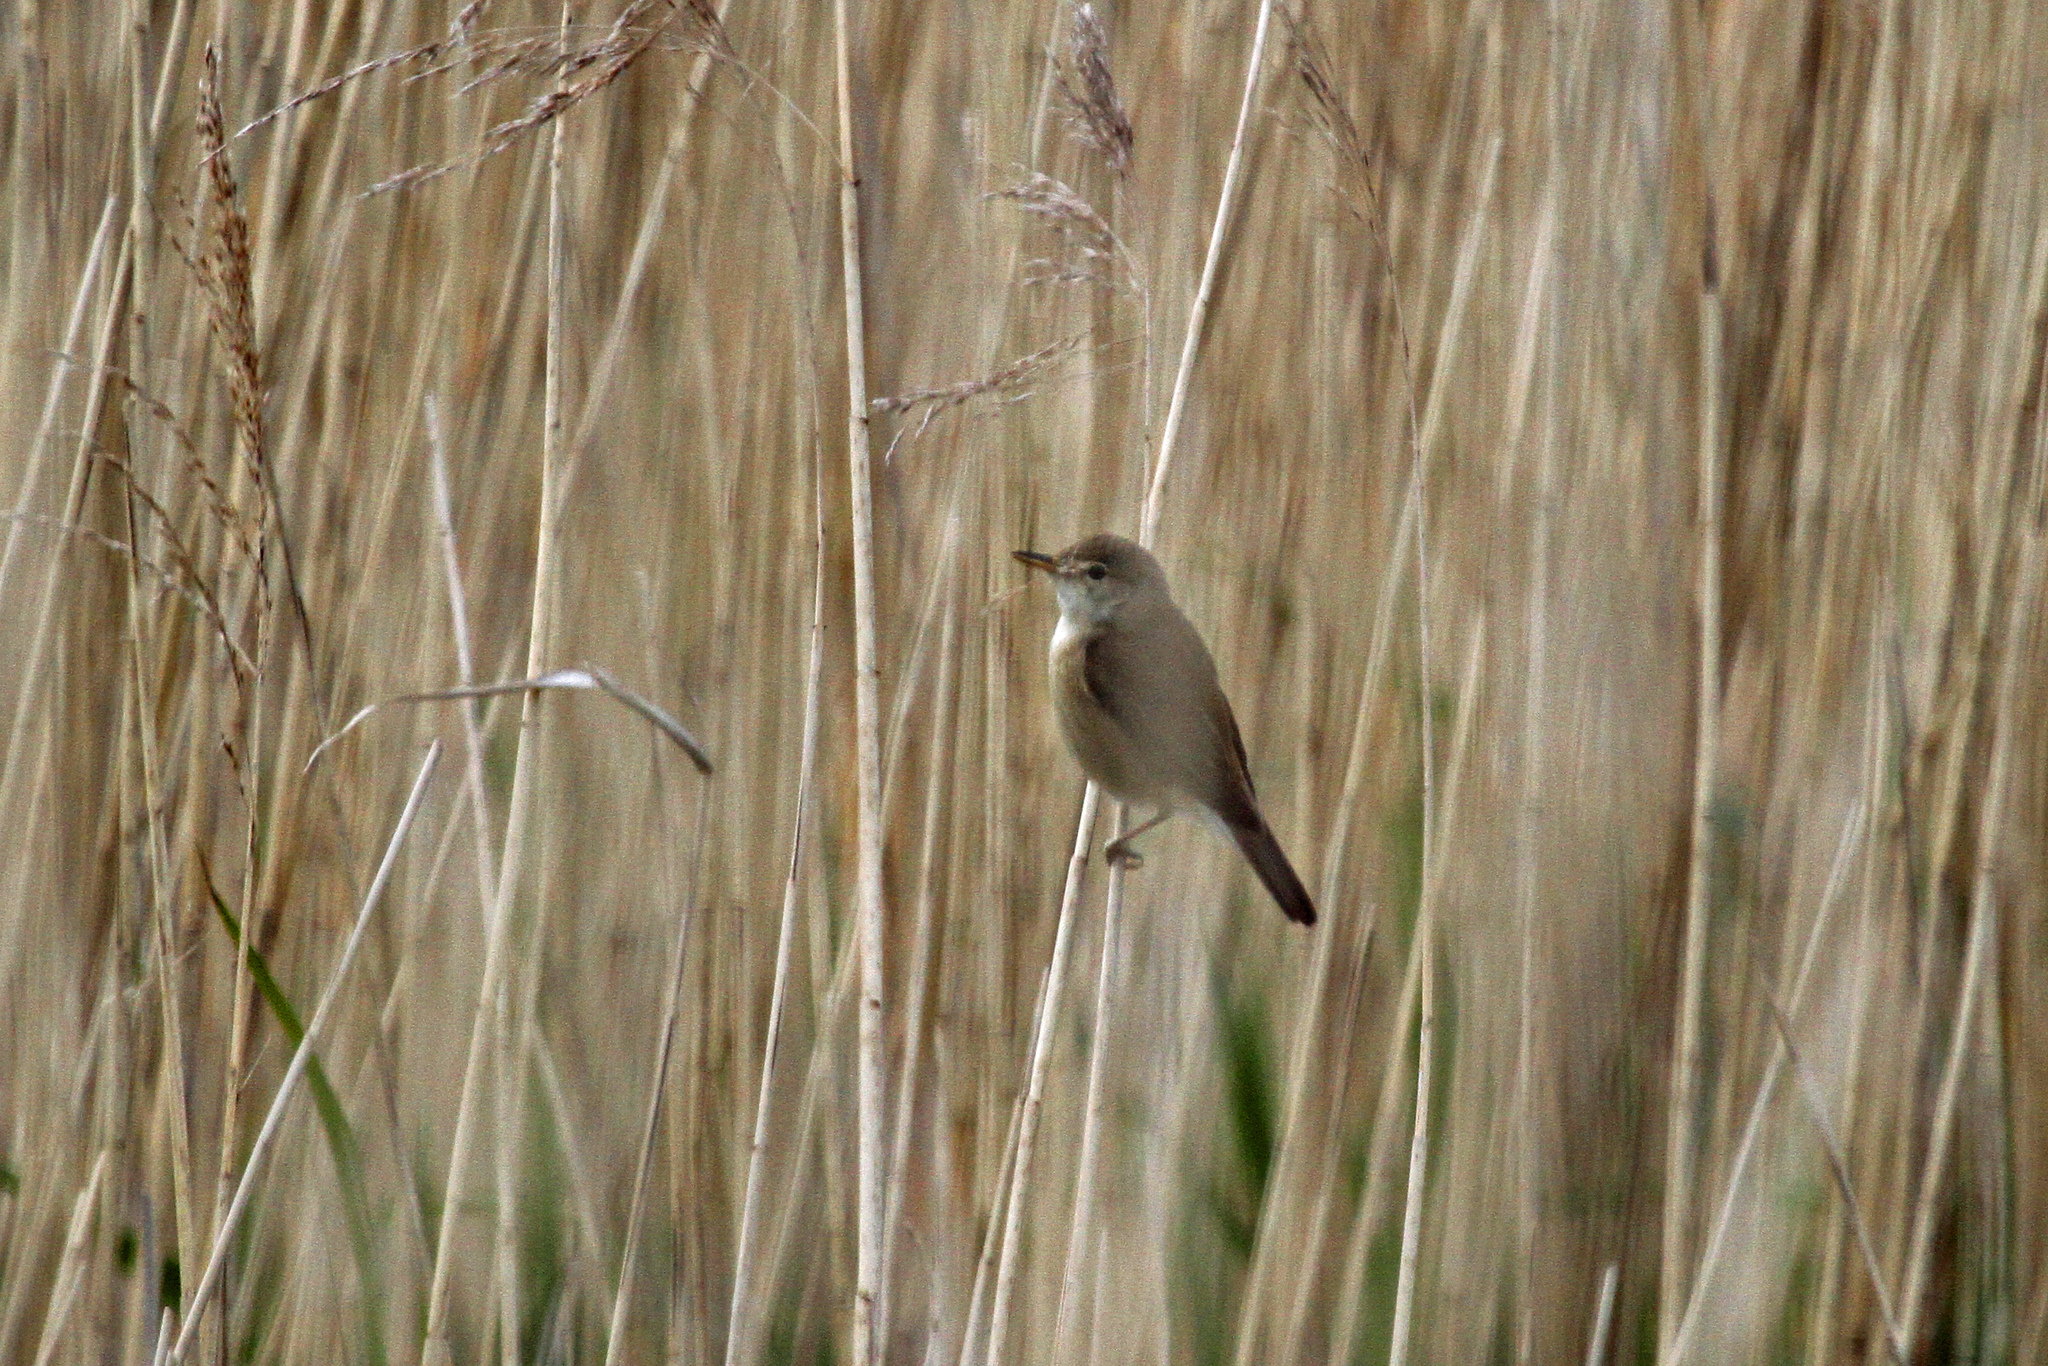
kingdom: Animalia
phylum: Chordata
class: Aves
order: Passeriformes
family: Acrocephalidae
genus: Acrocephalus
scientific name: Acrocephalus scirpaceus
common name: Eurasian reed warbler
